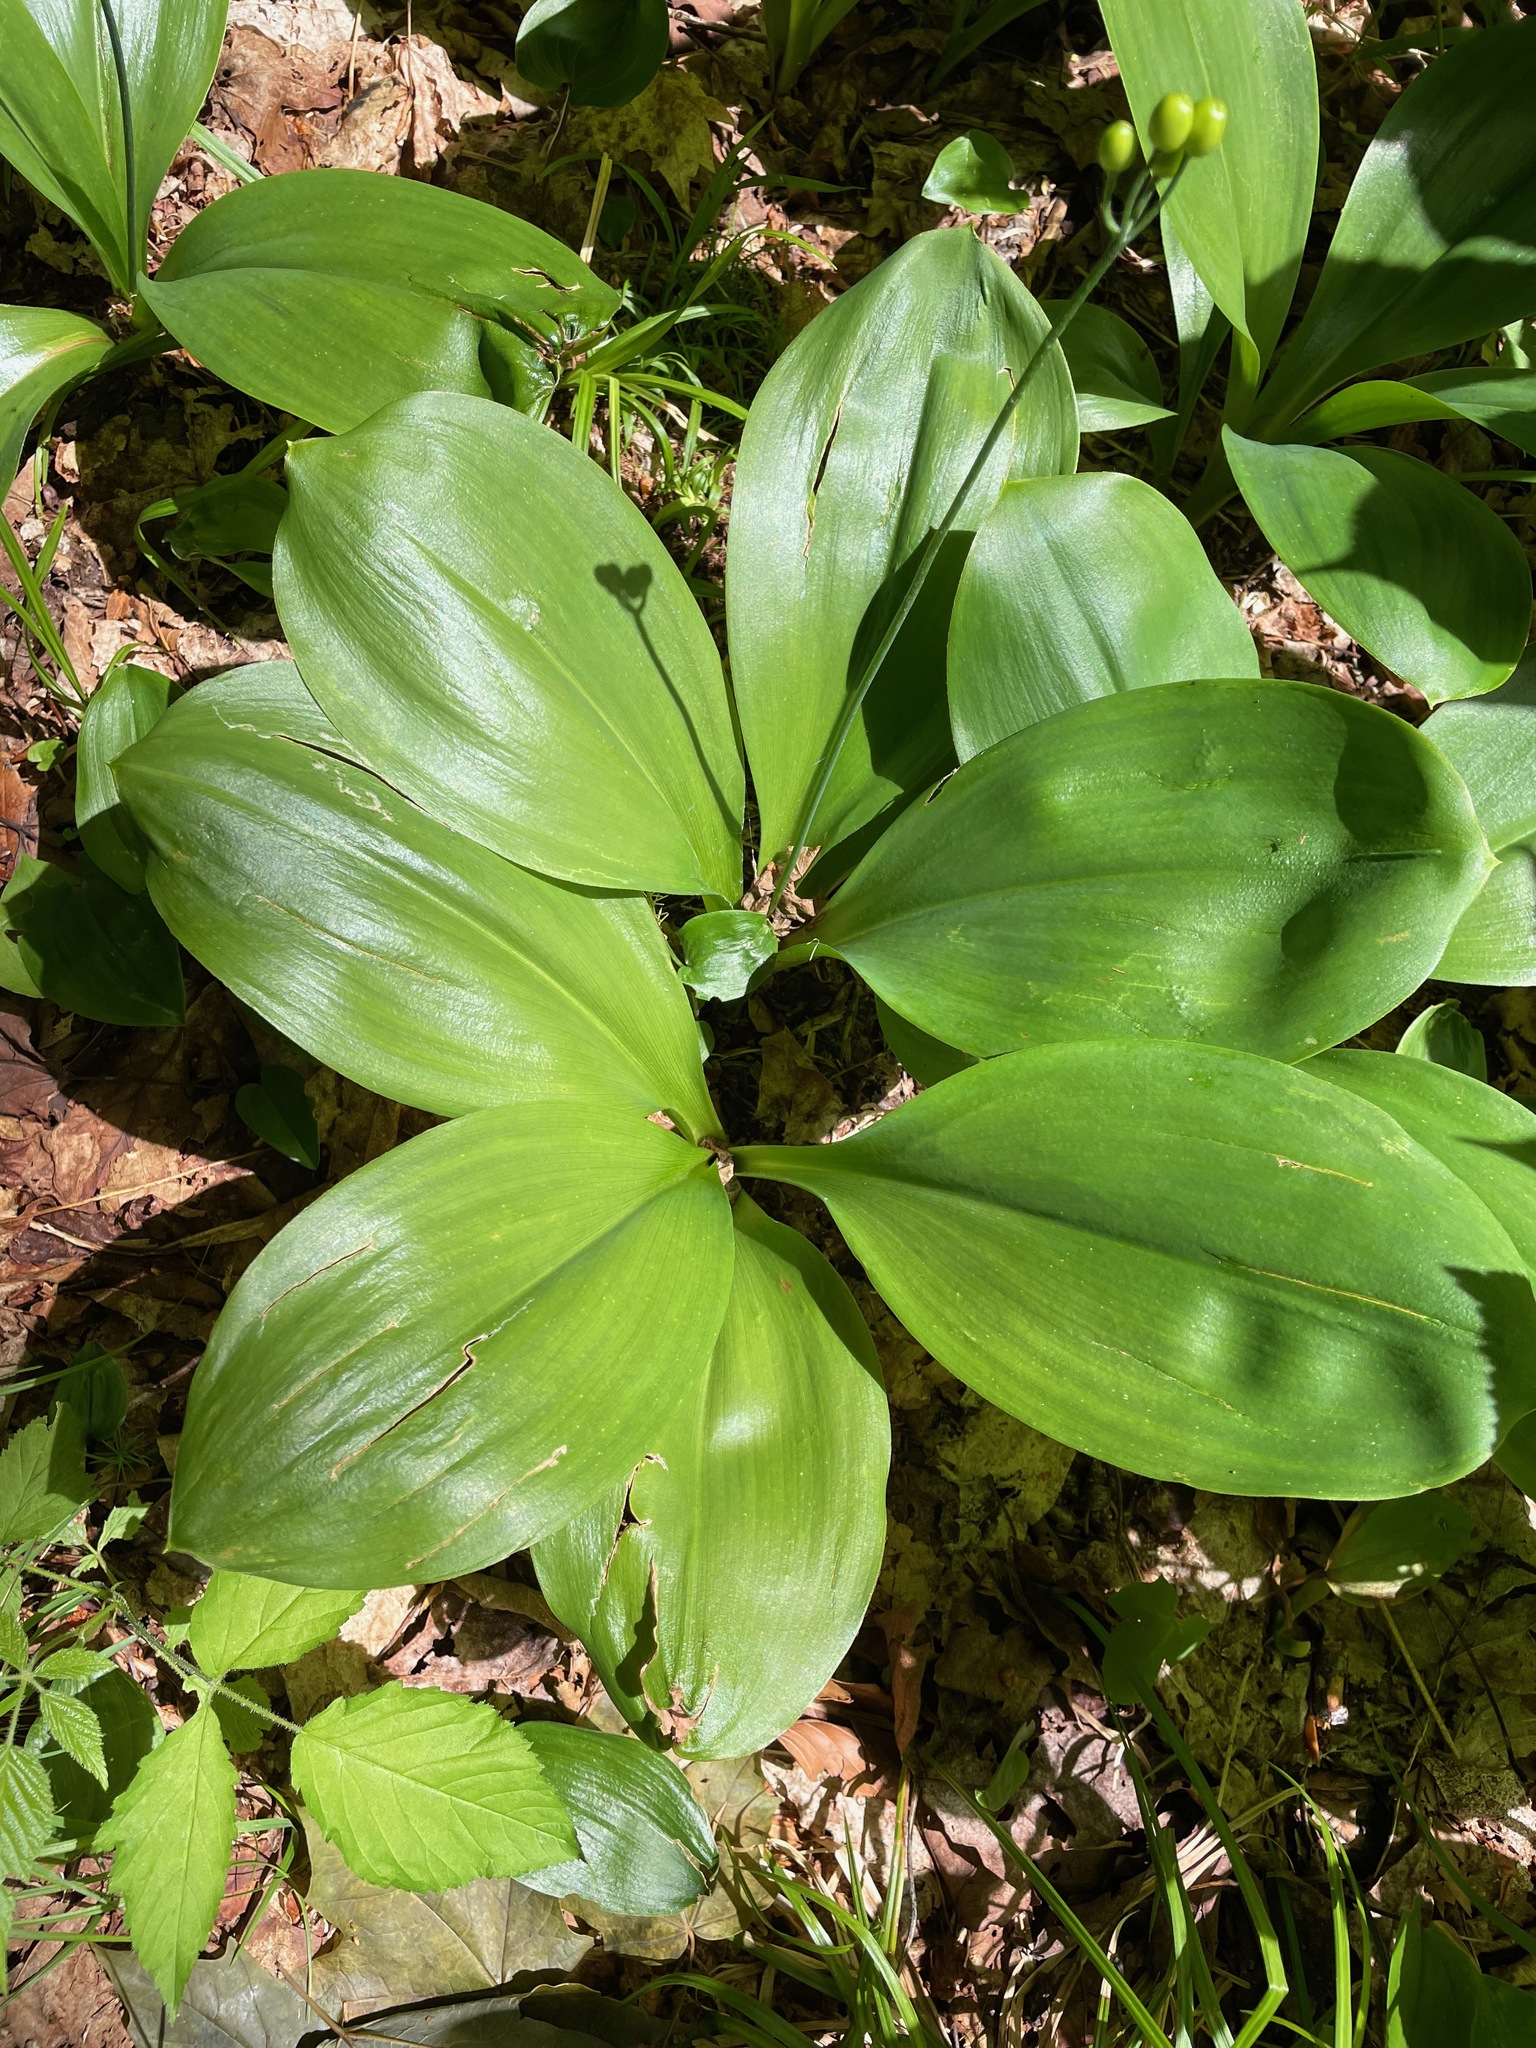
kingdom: Plantae
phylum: Tracheophyta
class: Liliopsida
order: Liliales
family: Liliaceae
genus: Clintonia
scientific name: Clintonia borealis
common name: Yellow clintonia
